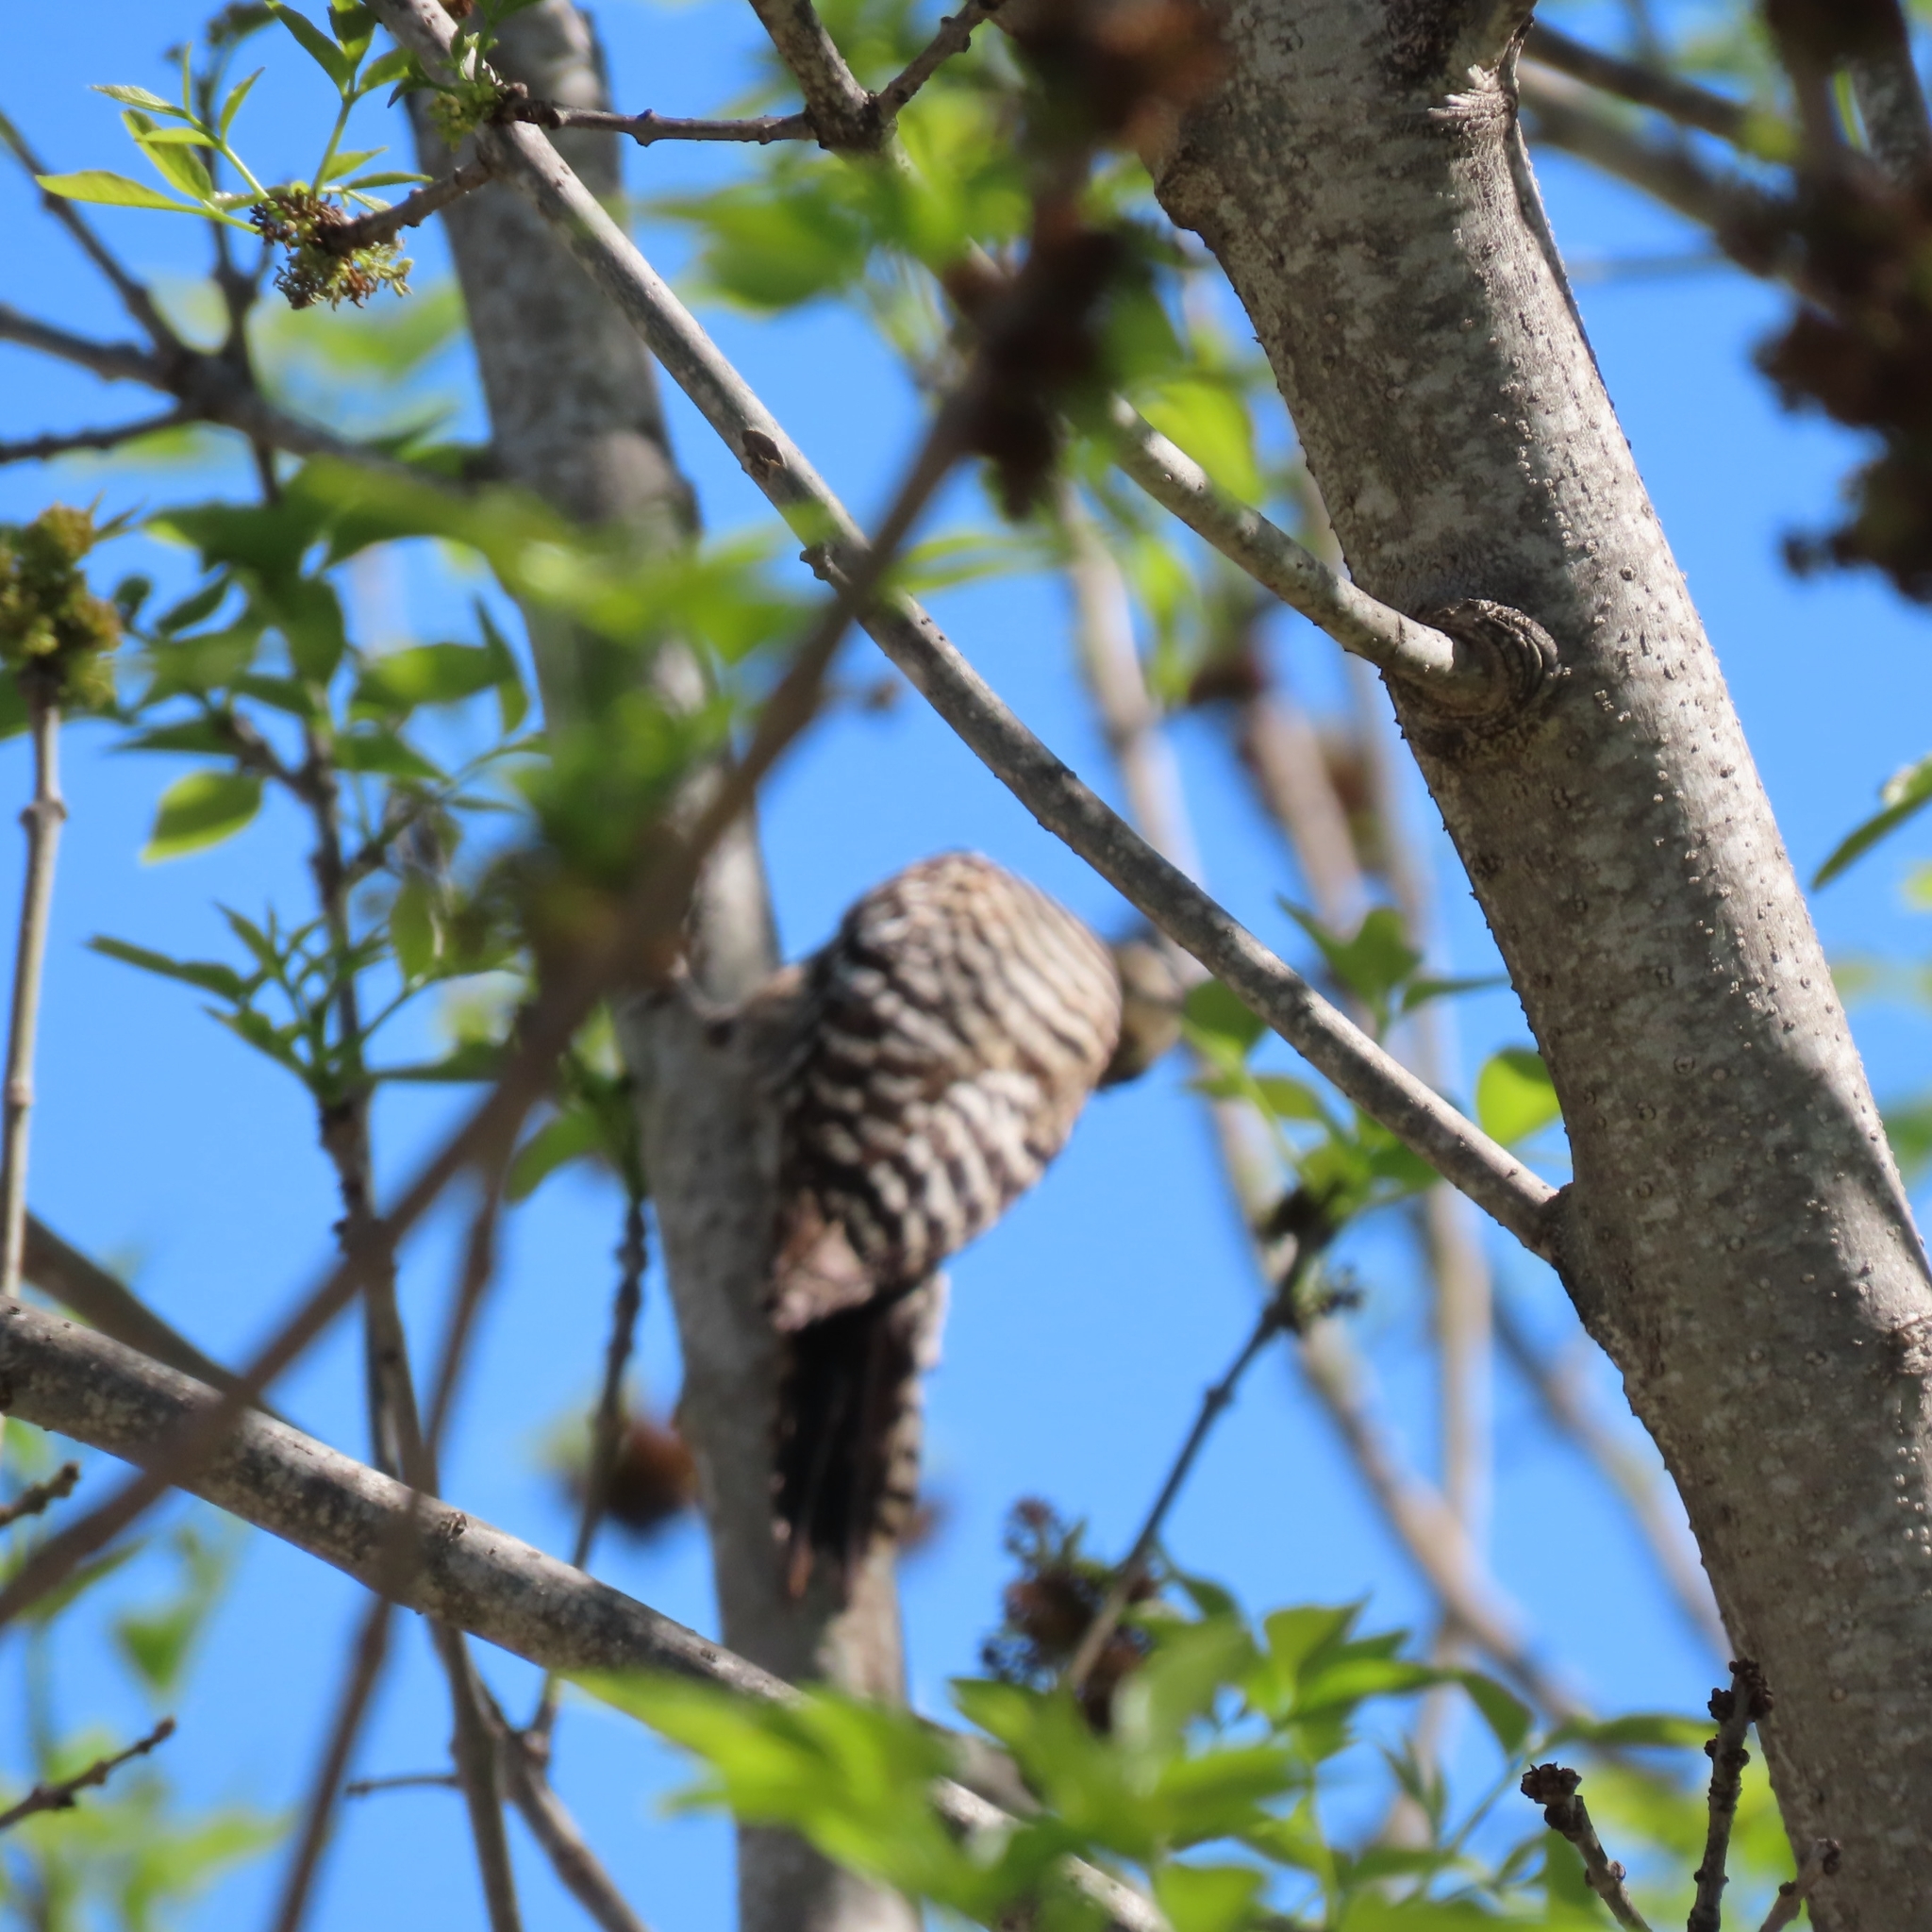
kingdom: Animalia
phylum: Chordata
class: Aves
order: Piciformes
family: Picidae
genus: Dryobates
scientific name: Dryobates scalaris
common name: Ladder-backed woodpecker
